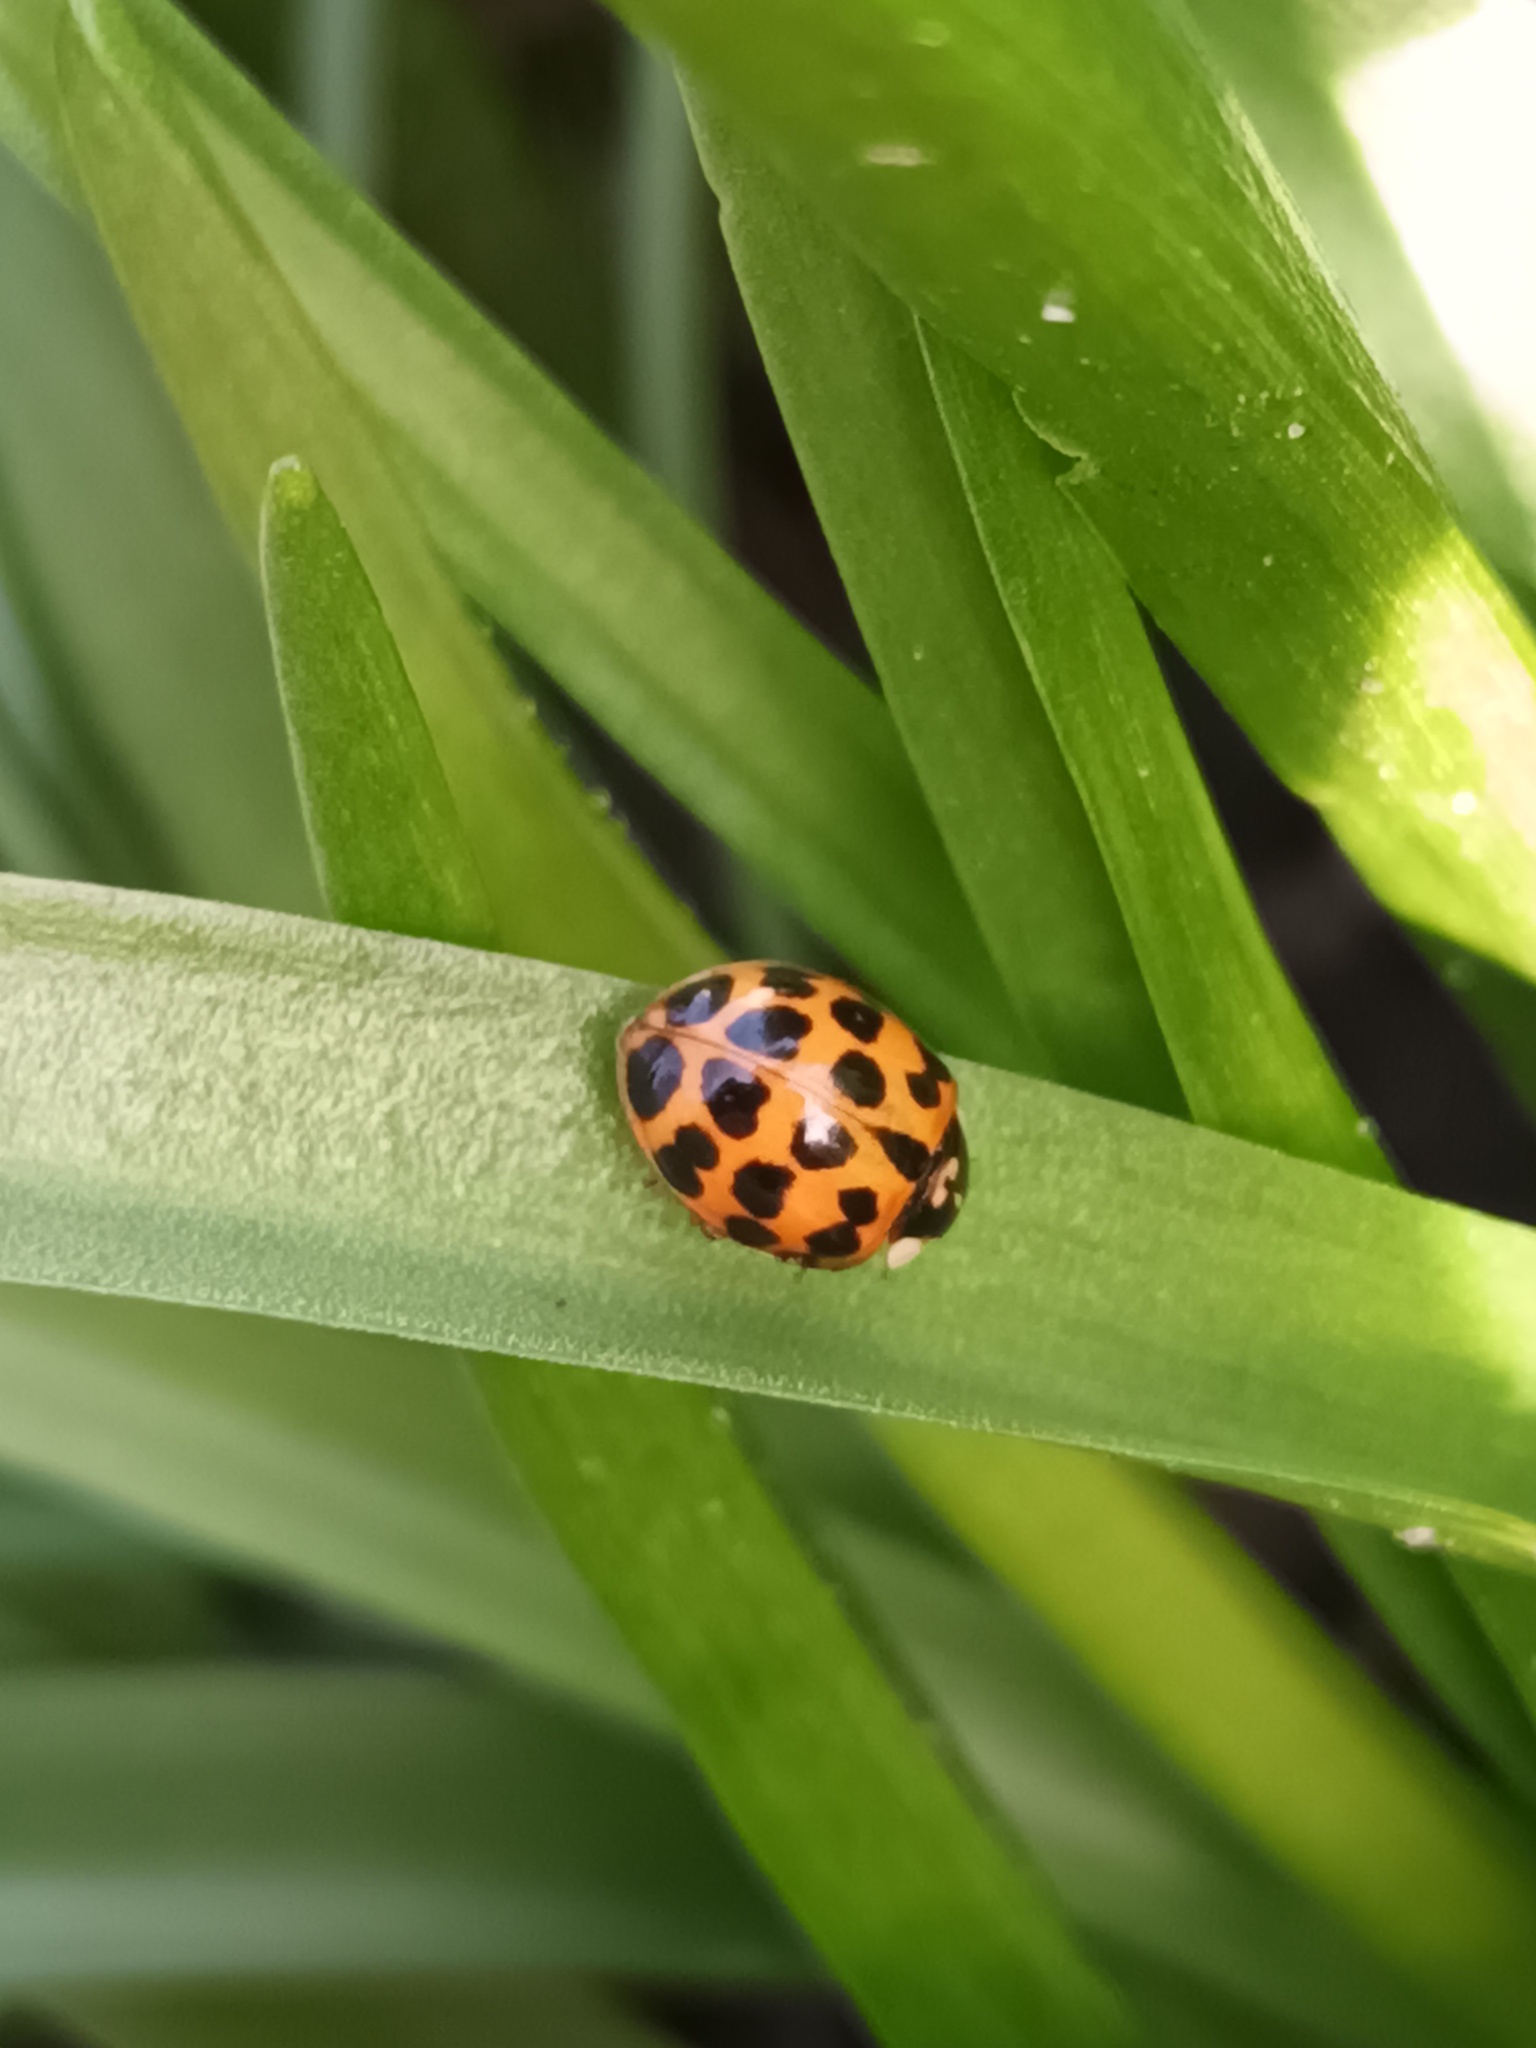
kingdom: Animalia
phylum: Arthropoda
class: Insecta
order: Coleoptera
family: Coccinellidae
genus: Harmonia
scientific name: Harmonia axyridis
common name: Harlequin ladybird
